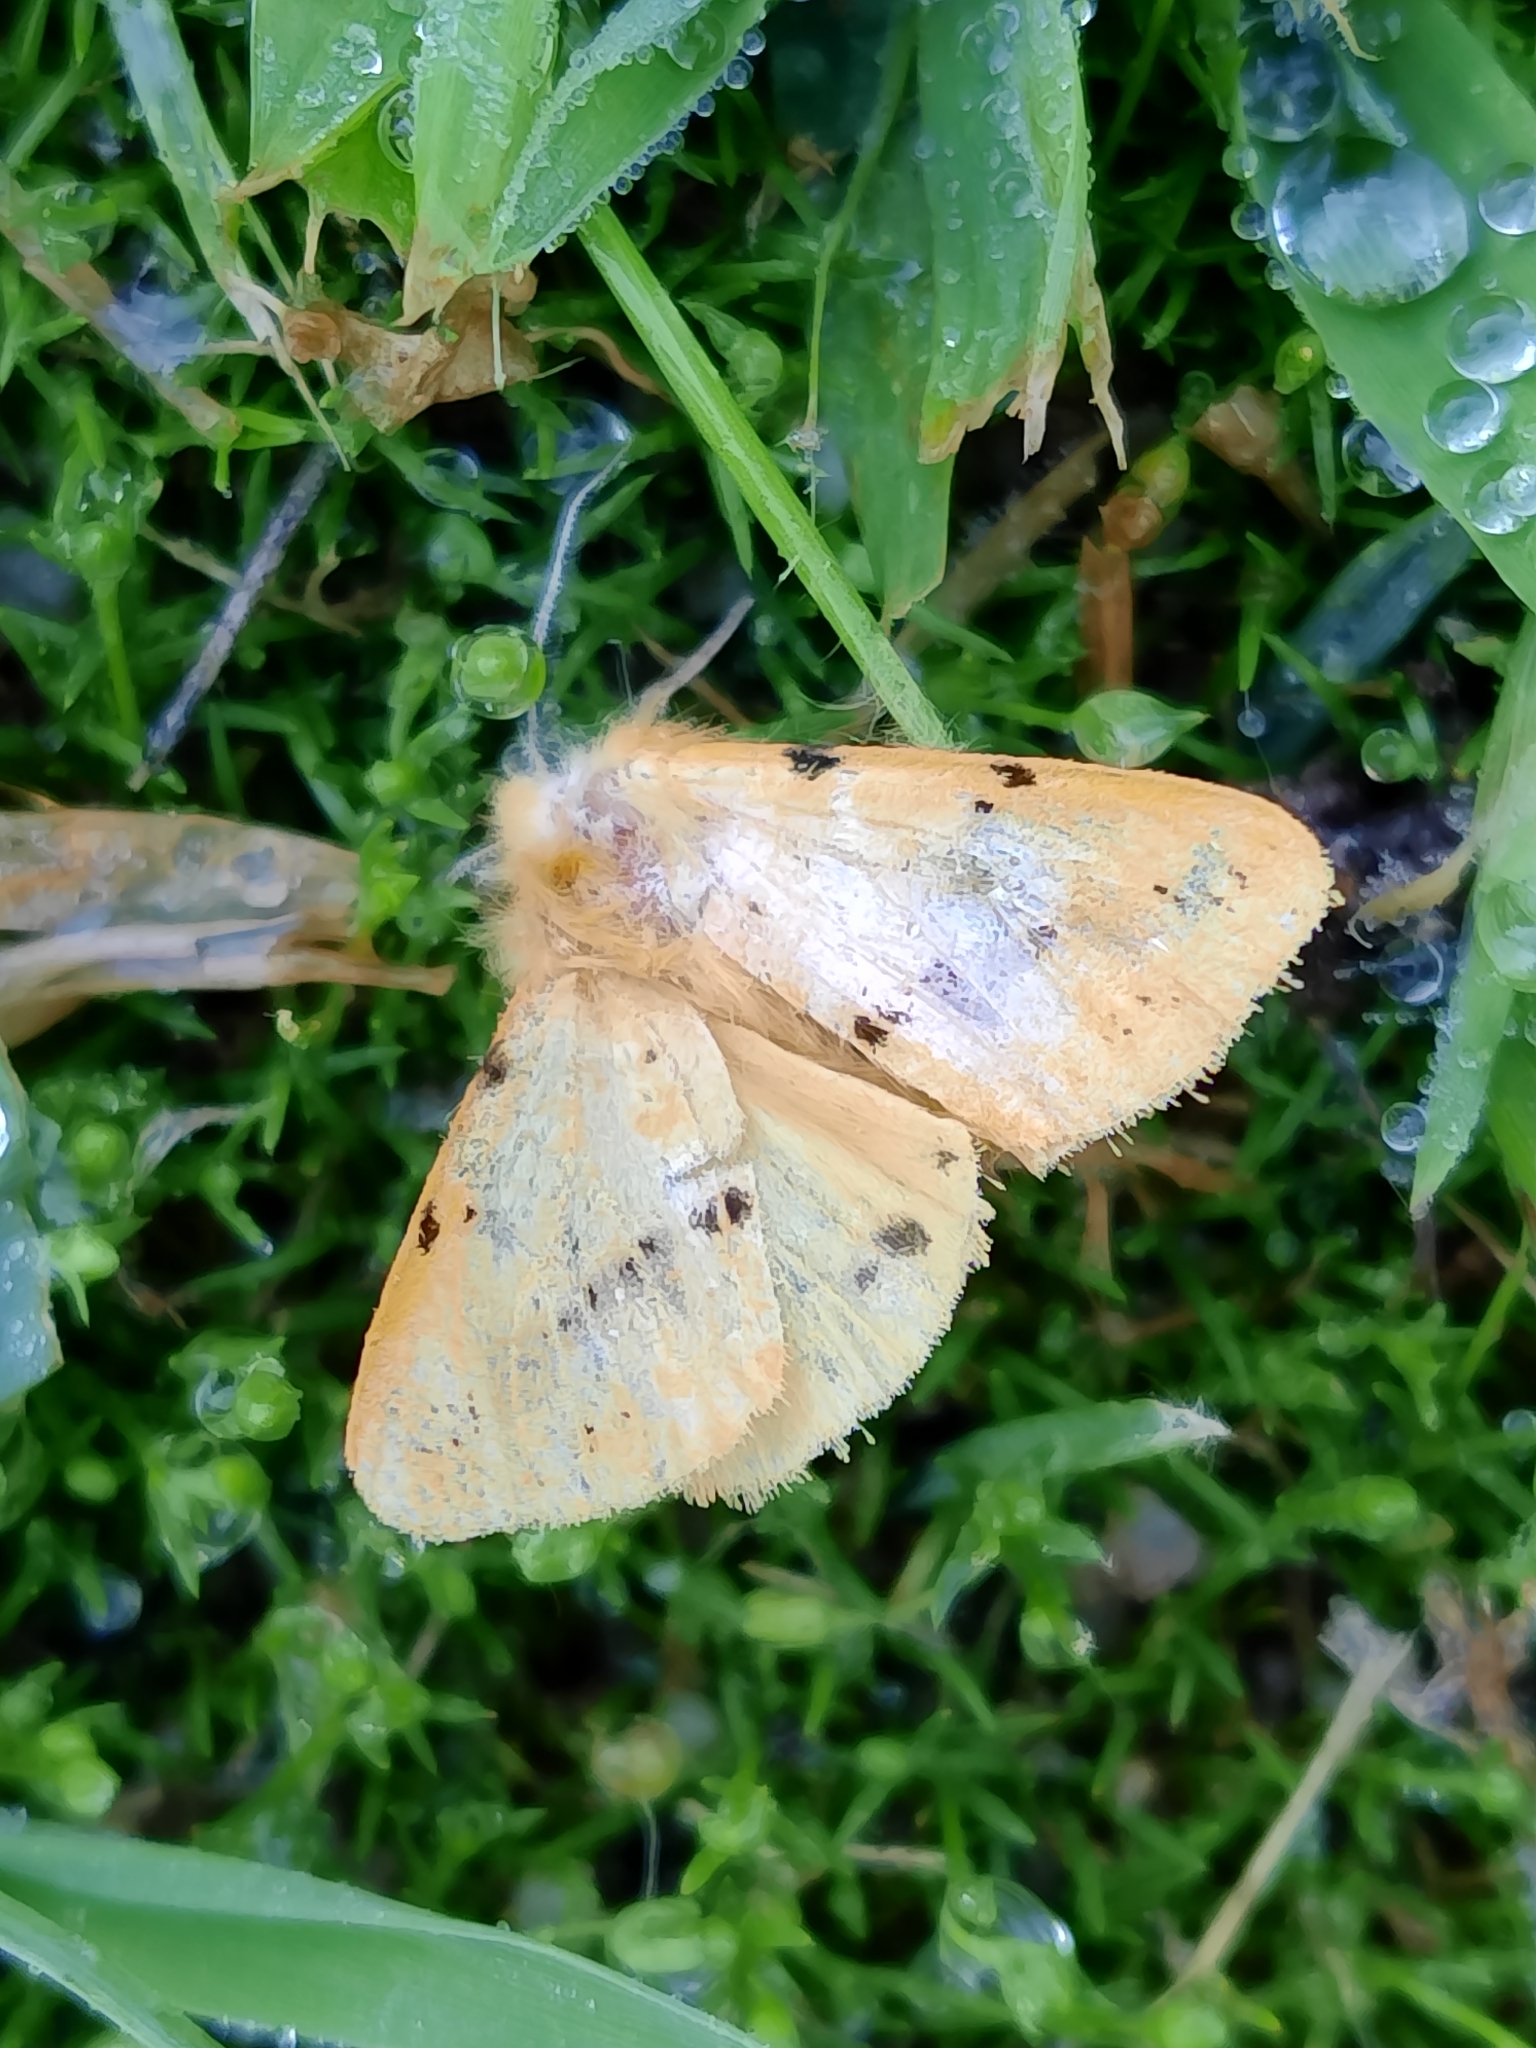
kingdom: Animalia
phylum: Arthropoda
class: Insecta
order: Lepidoptera
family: Erebidae
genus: Spilarctia
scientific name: Spilarctia lutea
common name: Buff ermine
